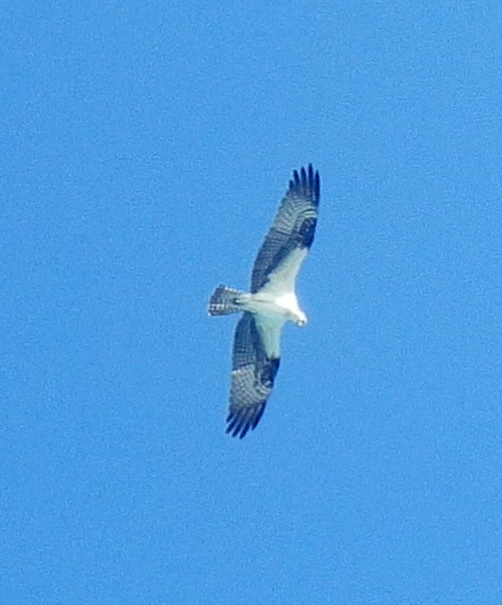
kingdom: Animalia
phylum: Chordata
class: Aves
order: Accipitriformes
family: Pandionidae
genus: Pandion
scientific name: Pandion haliaetus
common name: Osprey
